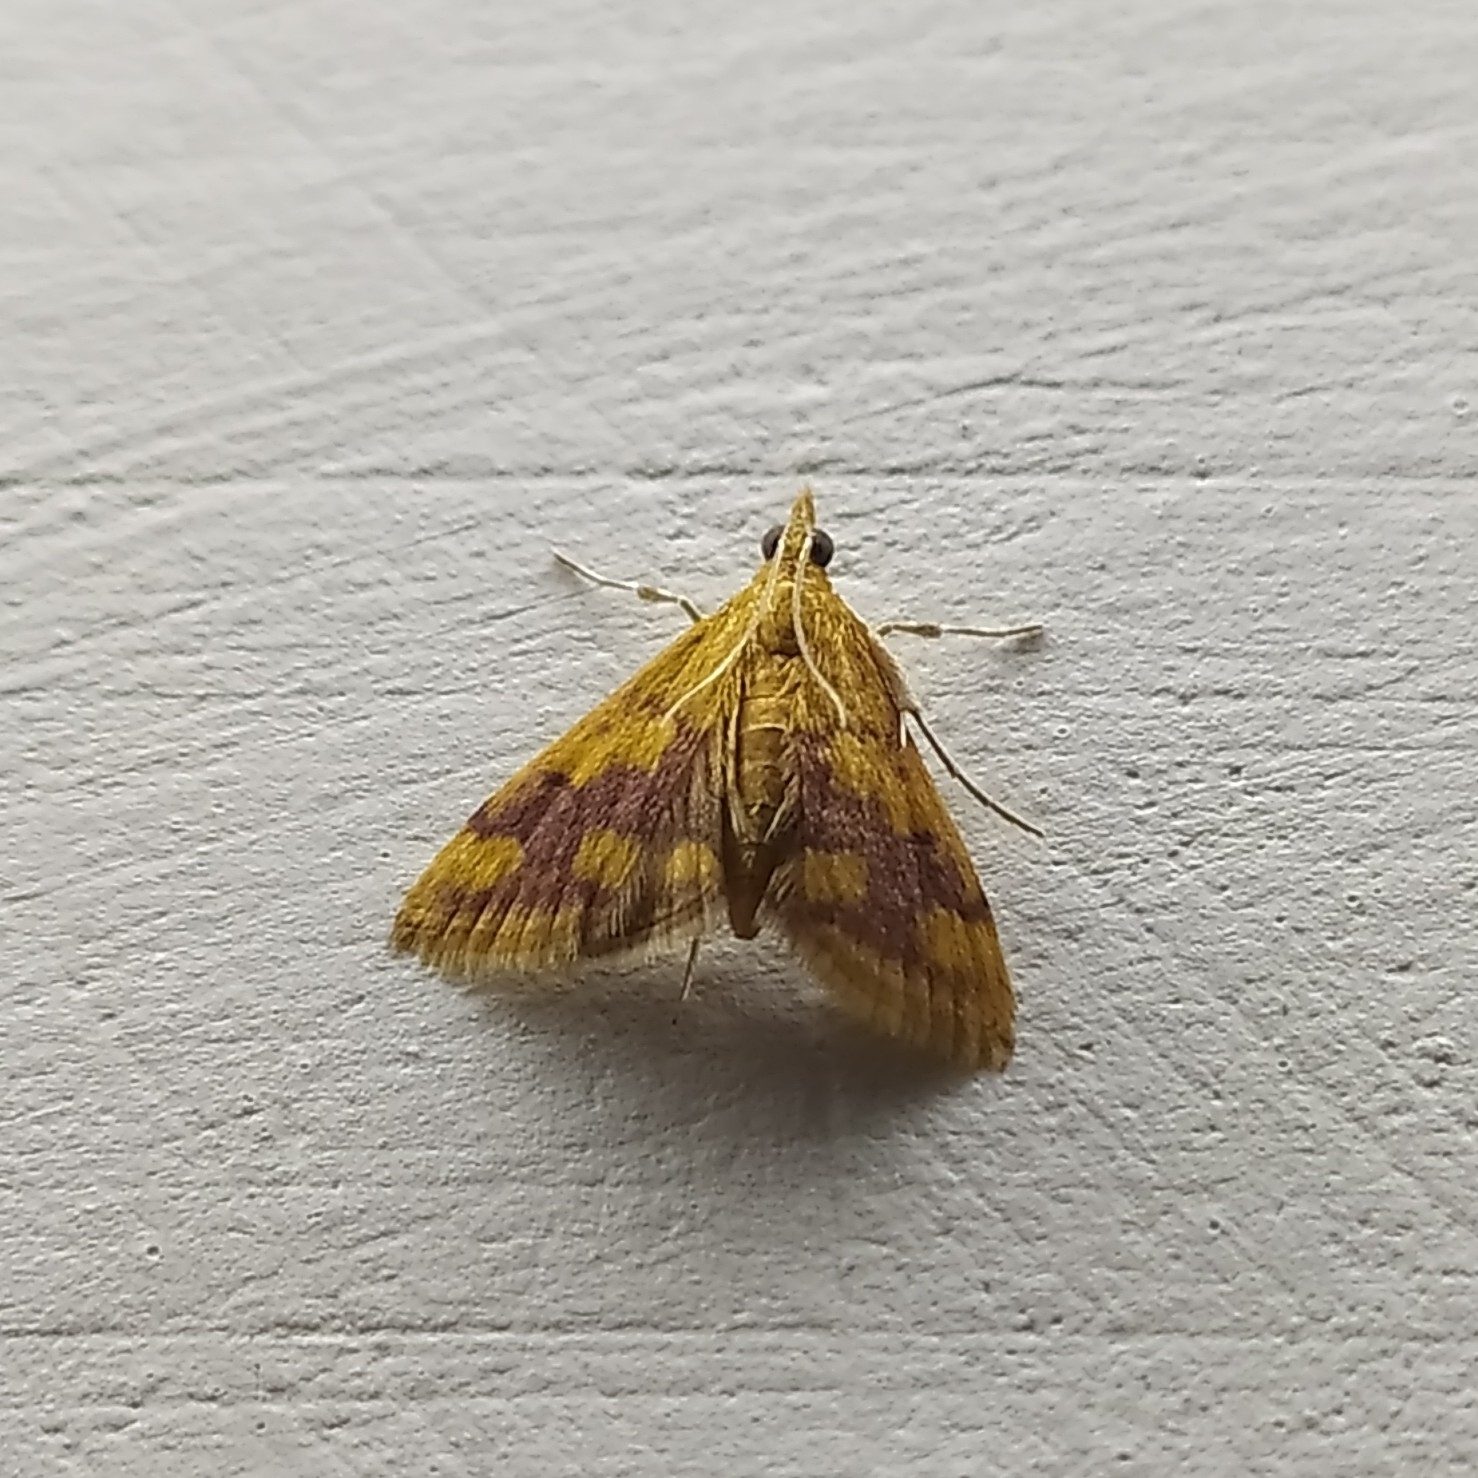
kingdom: Animalia
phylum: Arthropoda
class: Insecta
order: Lepidoptera
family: Crambidae
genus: Pyrausta
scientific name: Pyrausta phoenicealis
